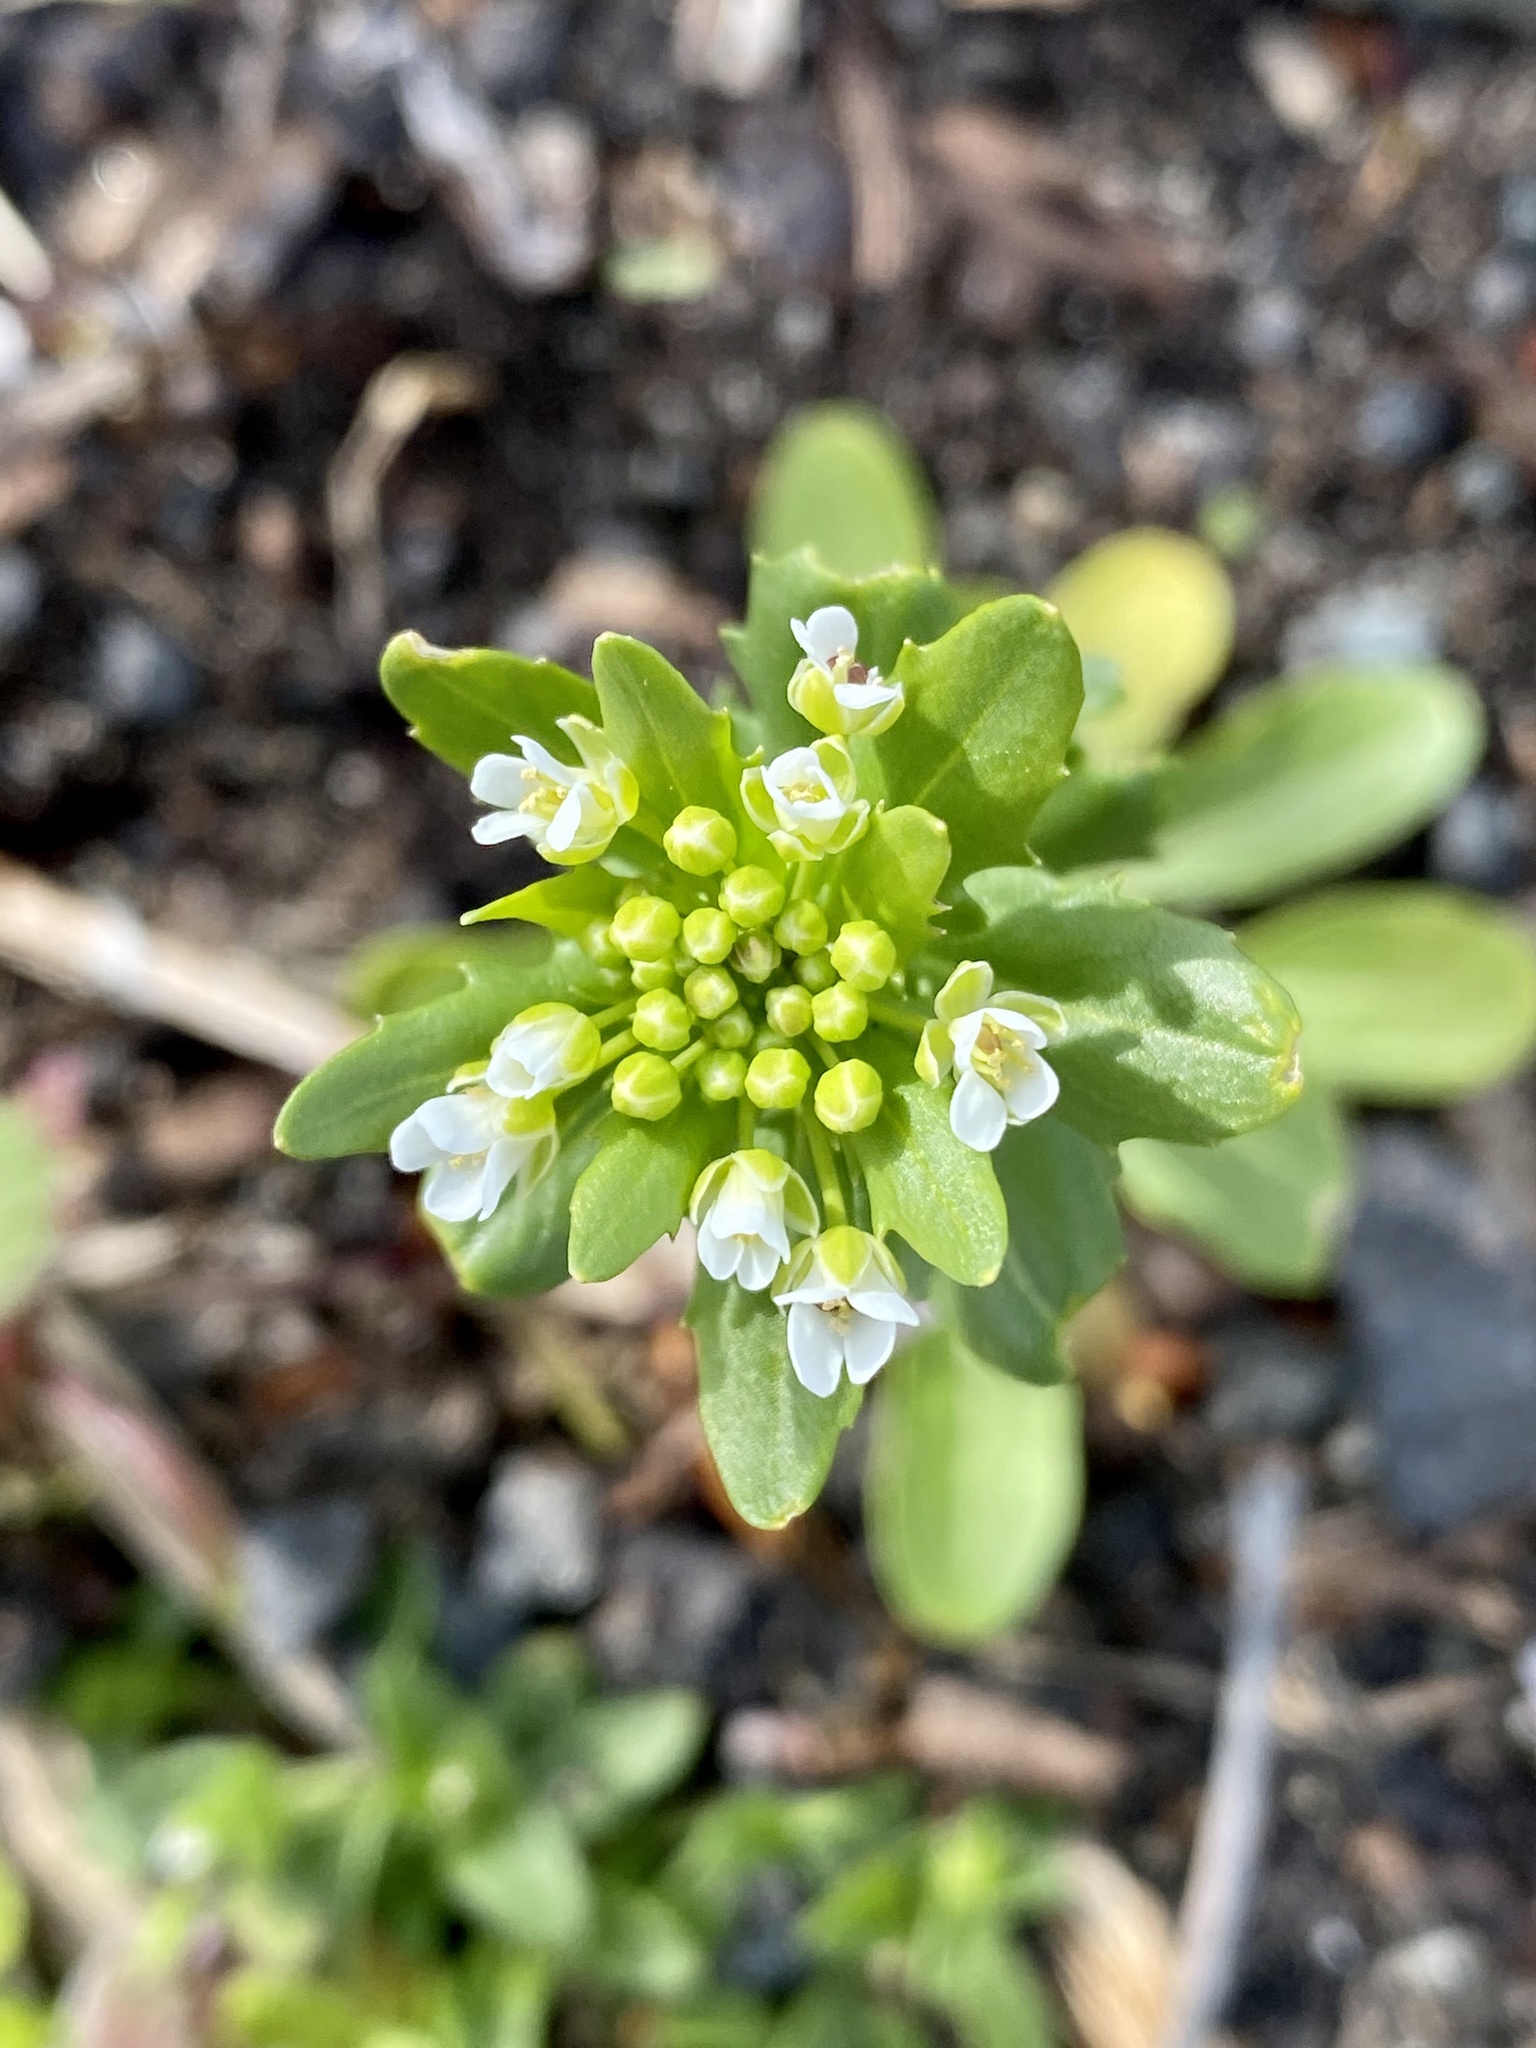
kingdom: Plantae
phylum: Tracheophyta
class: Magnoliopsida
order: Brassicales
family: Brassicaceae
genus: Thlaspi
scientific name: Thlaspi arvense
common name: Field pennycress
